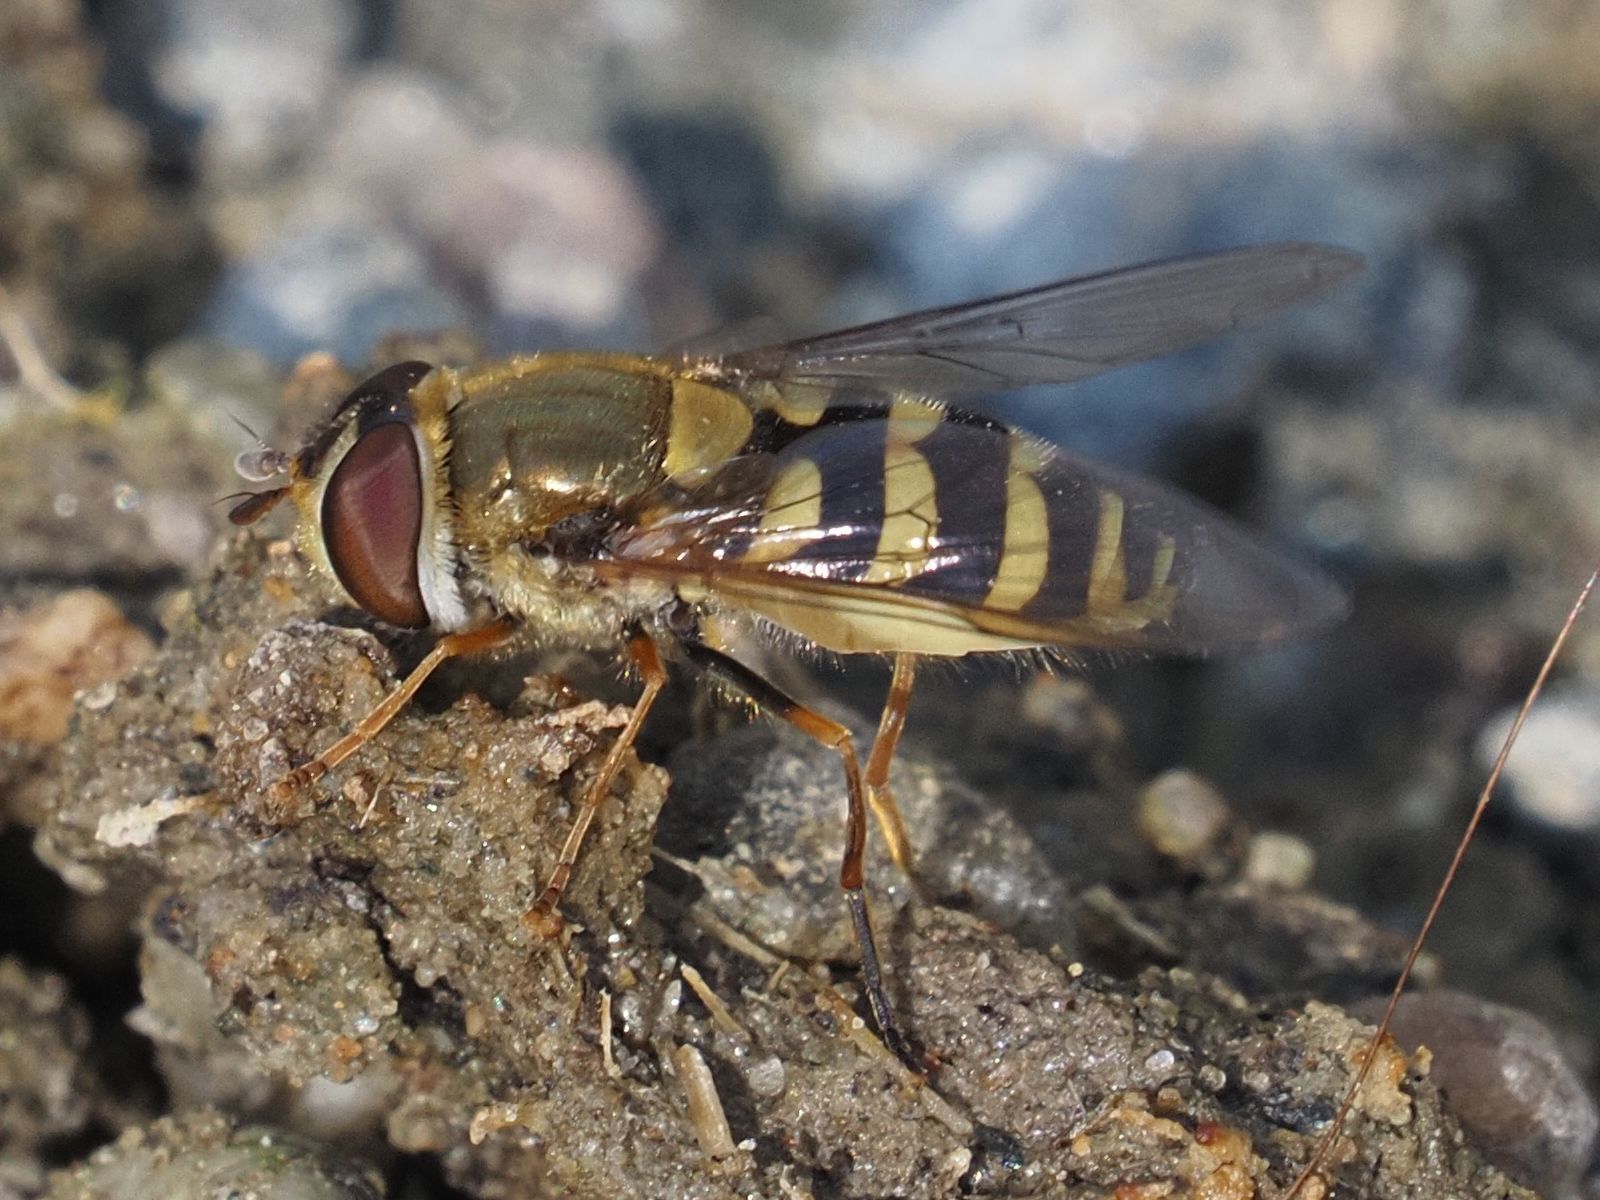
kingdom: Animalia
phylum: Arthropoda
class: Insecta
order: Diptera
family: Syrphidae
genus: Syrphus
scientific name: Syrphus
